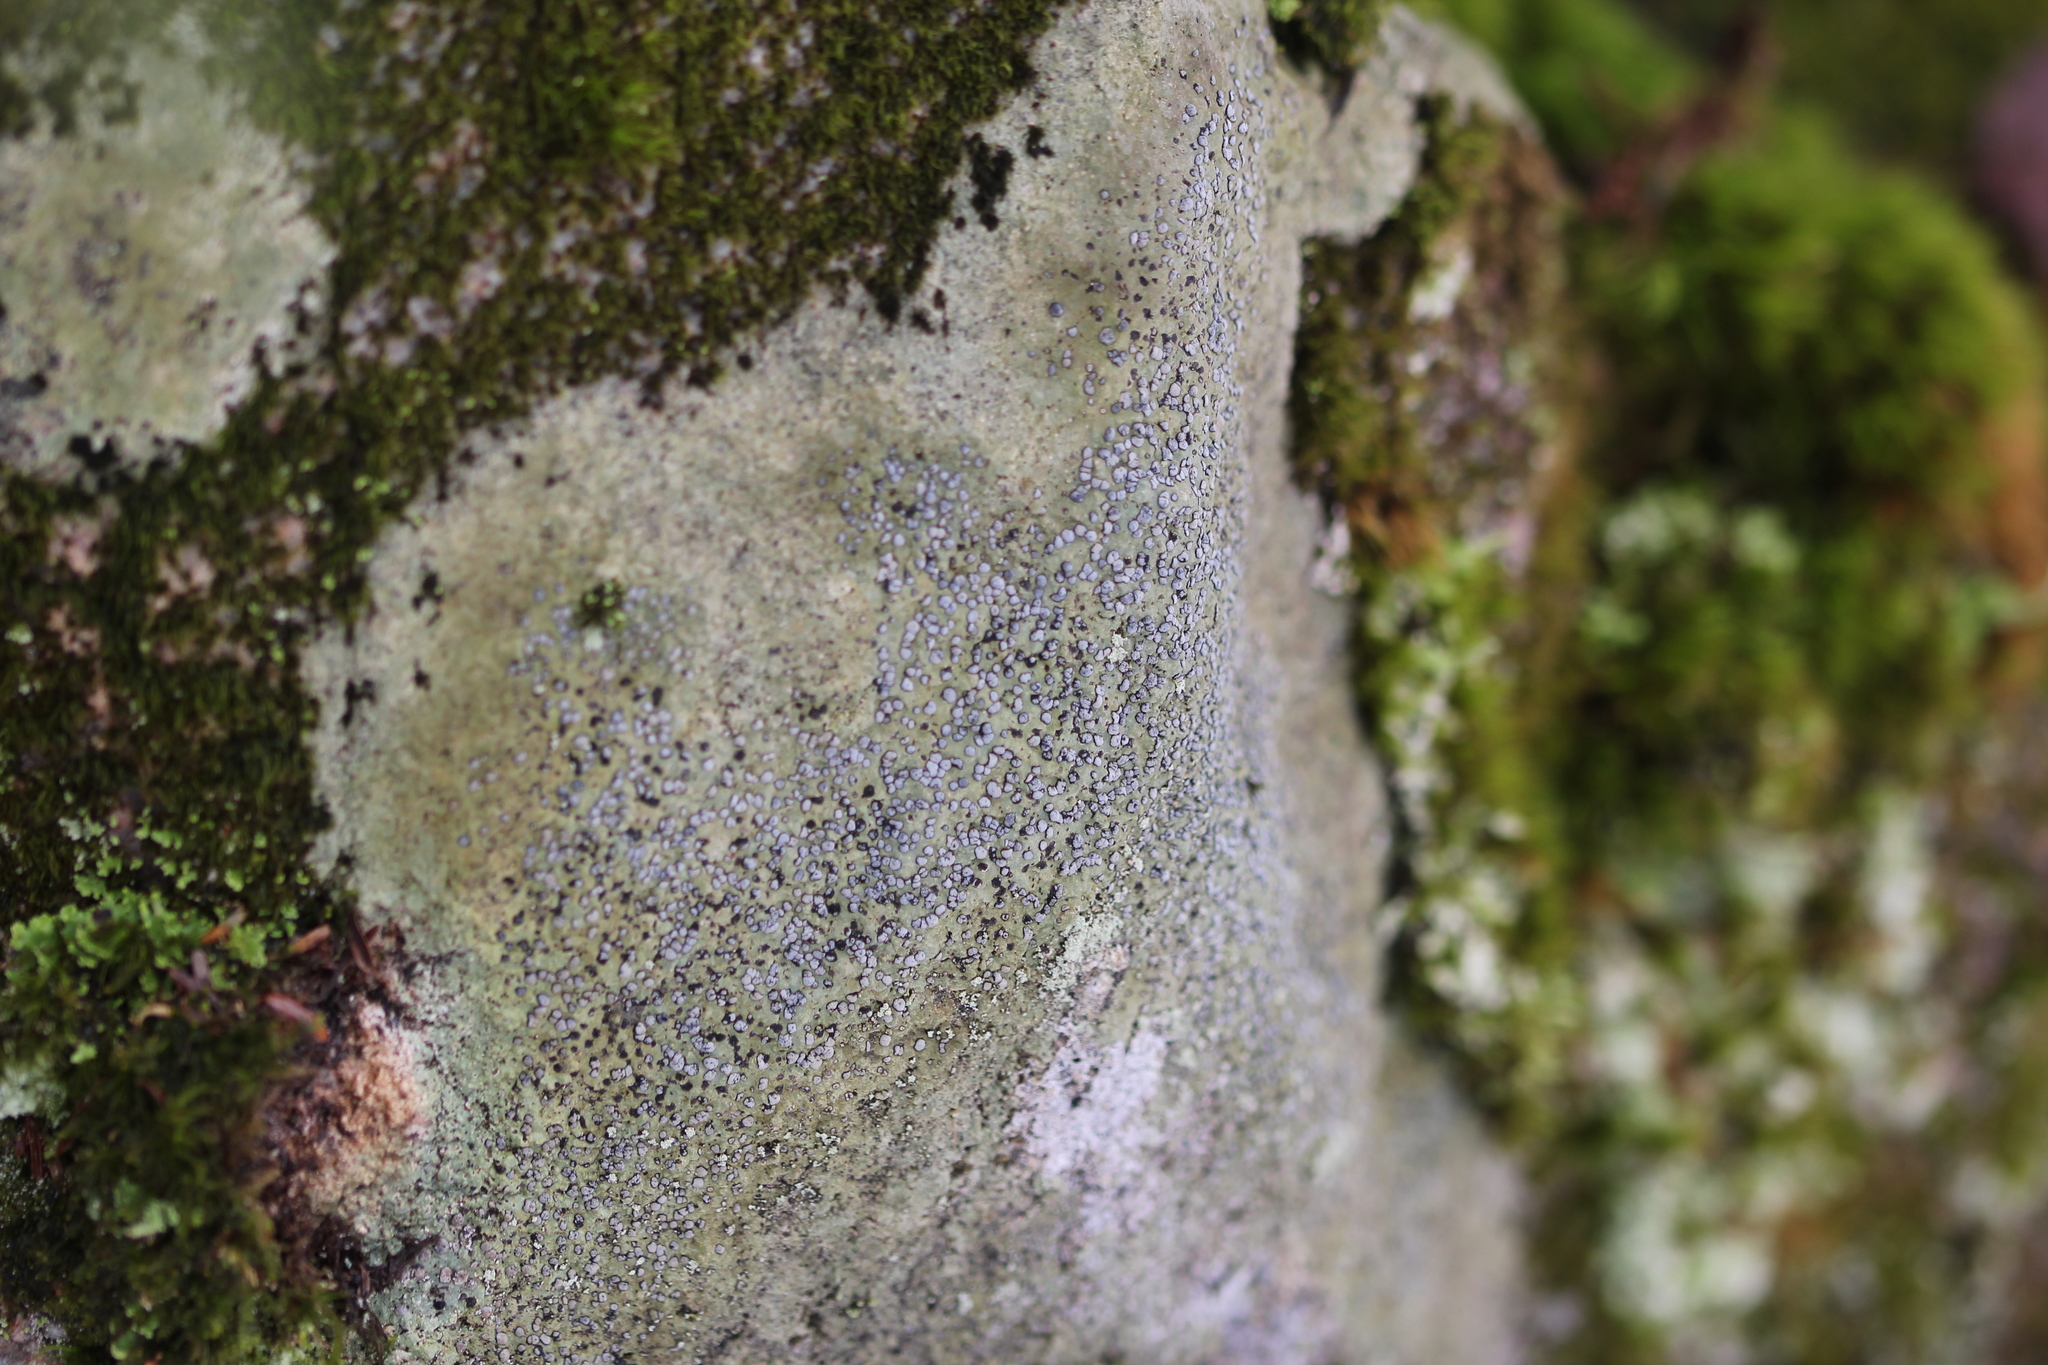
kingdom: Fungi
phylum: Ascomycota
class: Lecanoromycetes
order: Lecideales
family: Lecideaceae
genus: Porpidia
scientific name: Porpidia albocaerulescens
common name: Smokey-eyed boulder lichen
